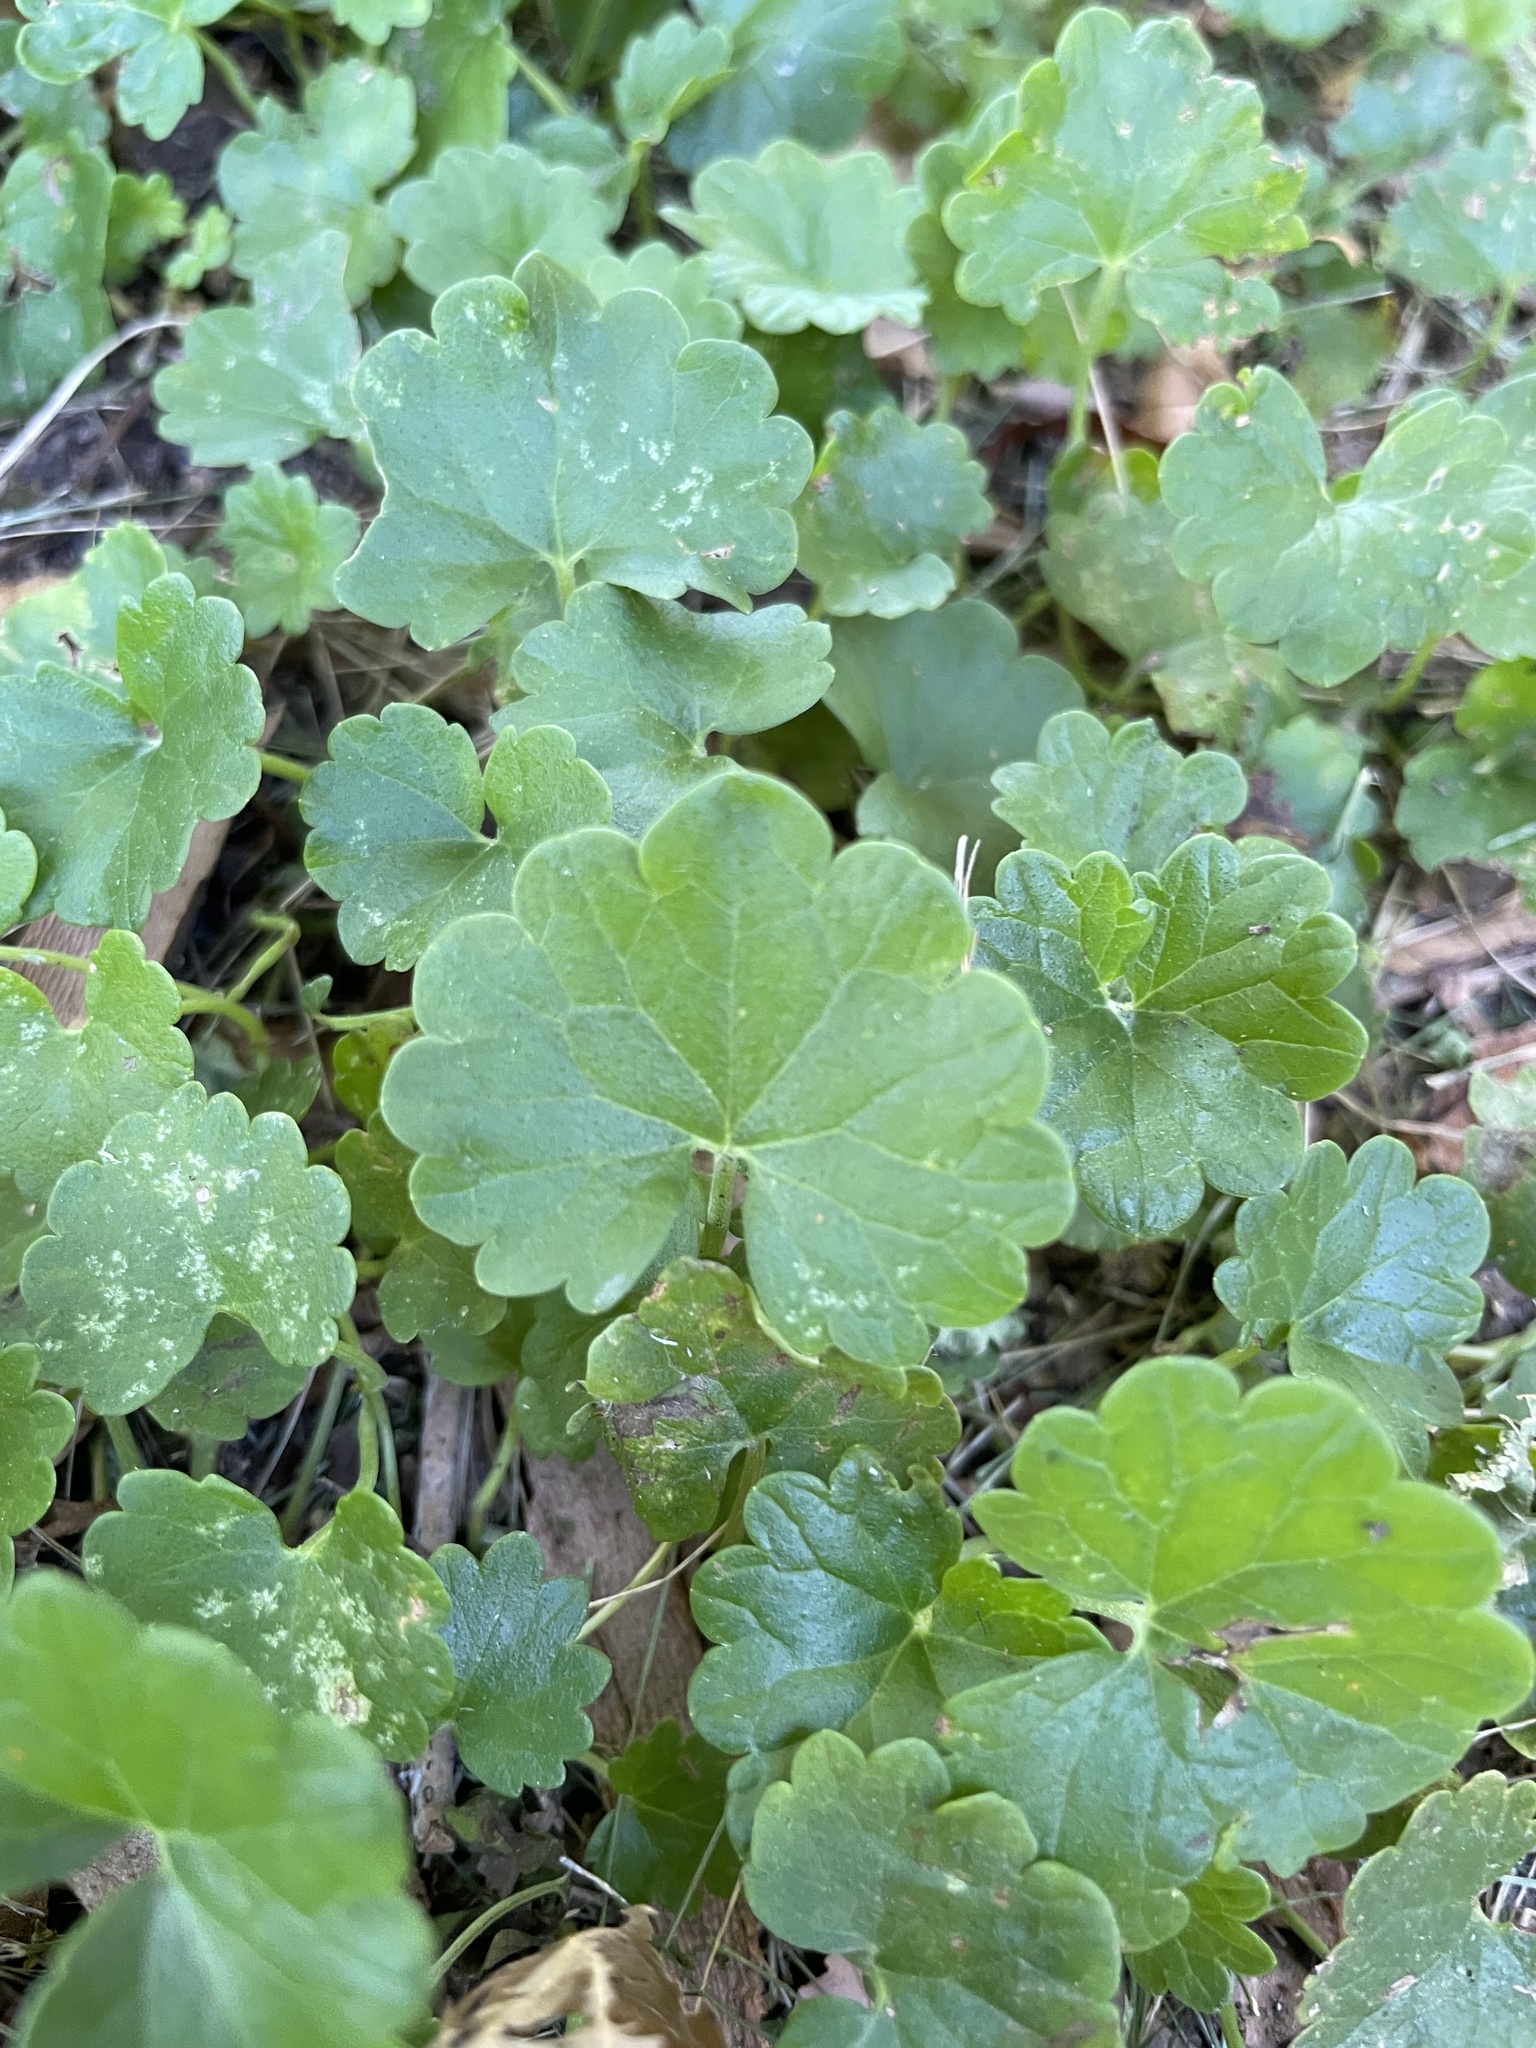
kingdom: Plantae
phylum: Tracheophyta
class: Magnoliopsida
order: Lamiales
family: Lamiaceae
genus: Glechoma
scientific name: Glechoma hederacea
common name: Ground ivy
